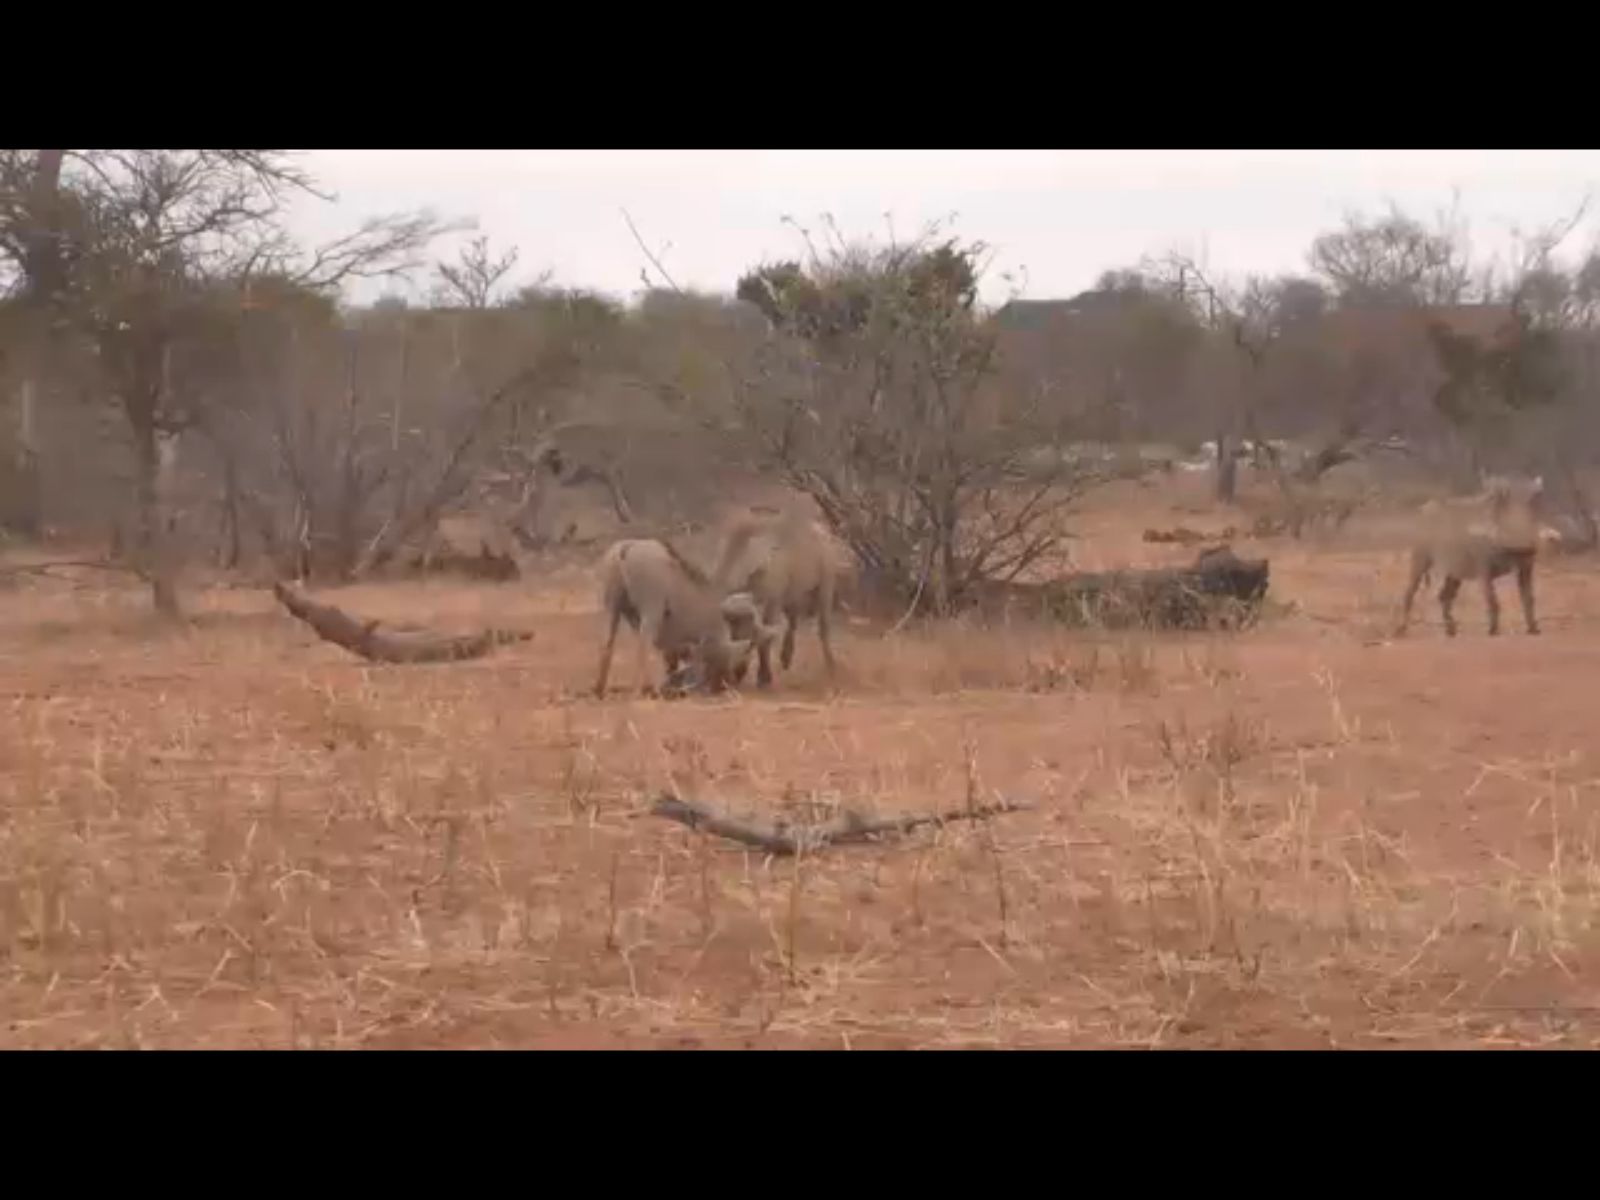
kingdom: Animalia
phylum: Chordata
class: Mammalia
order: Artiodactyla
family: Suidae
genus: Phacochoerus
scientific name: Phacochoerus africanus
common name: Common warthog
